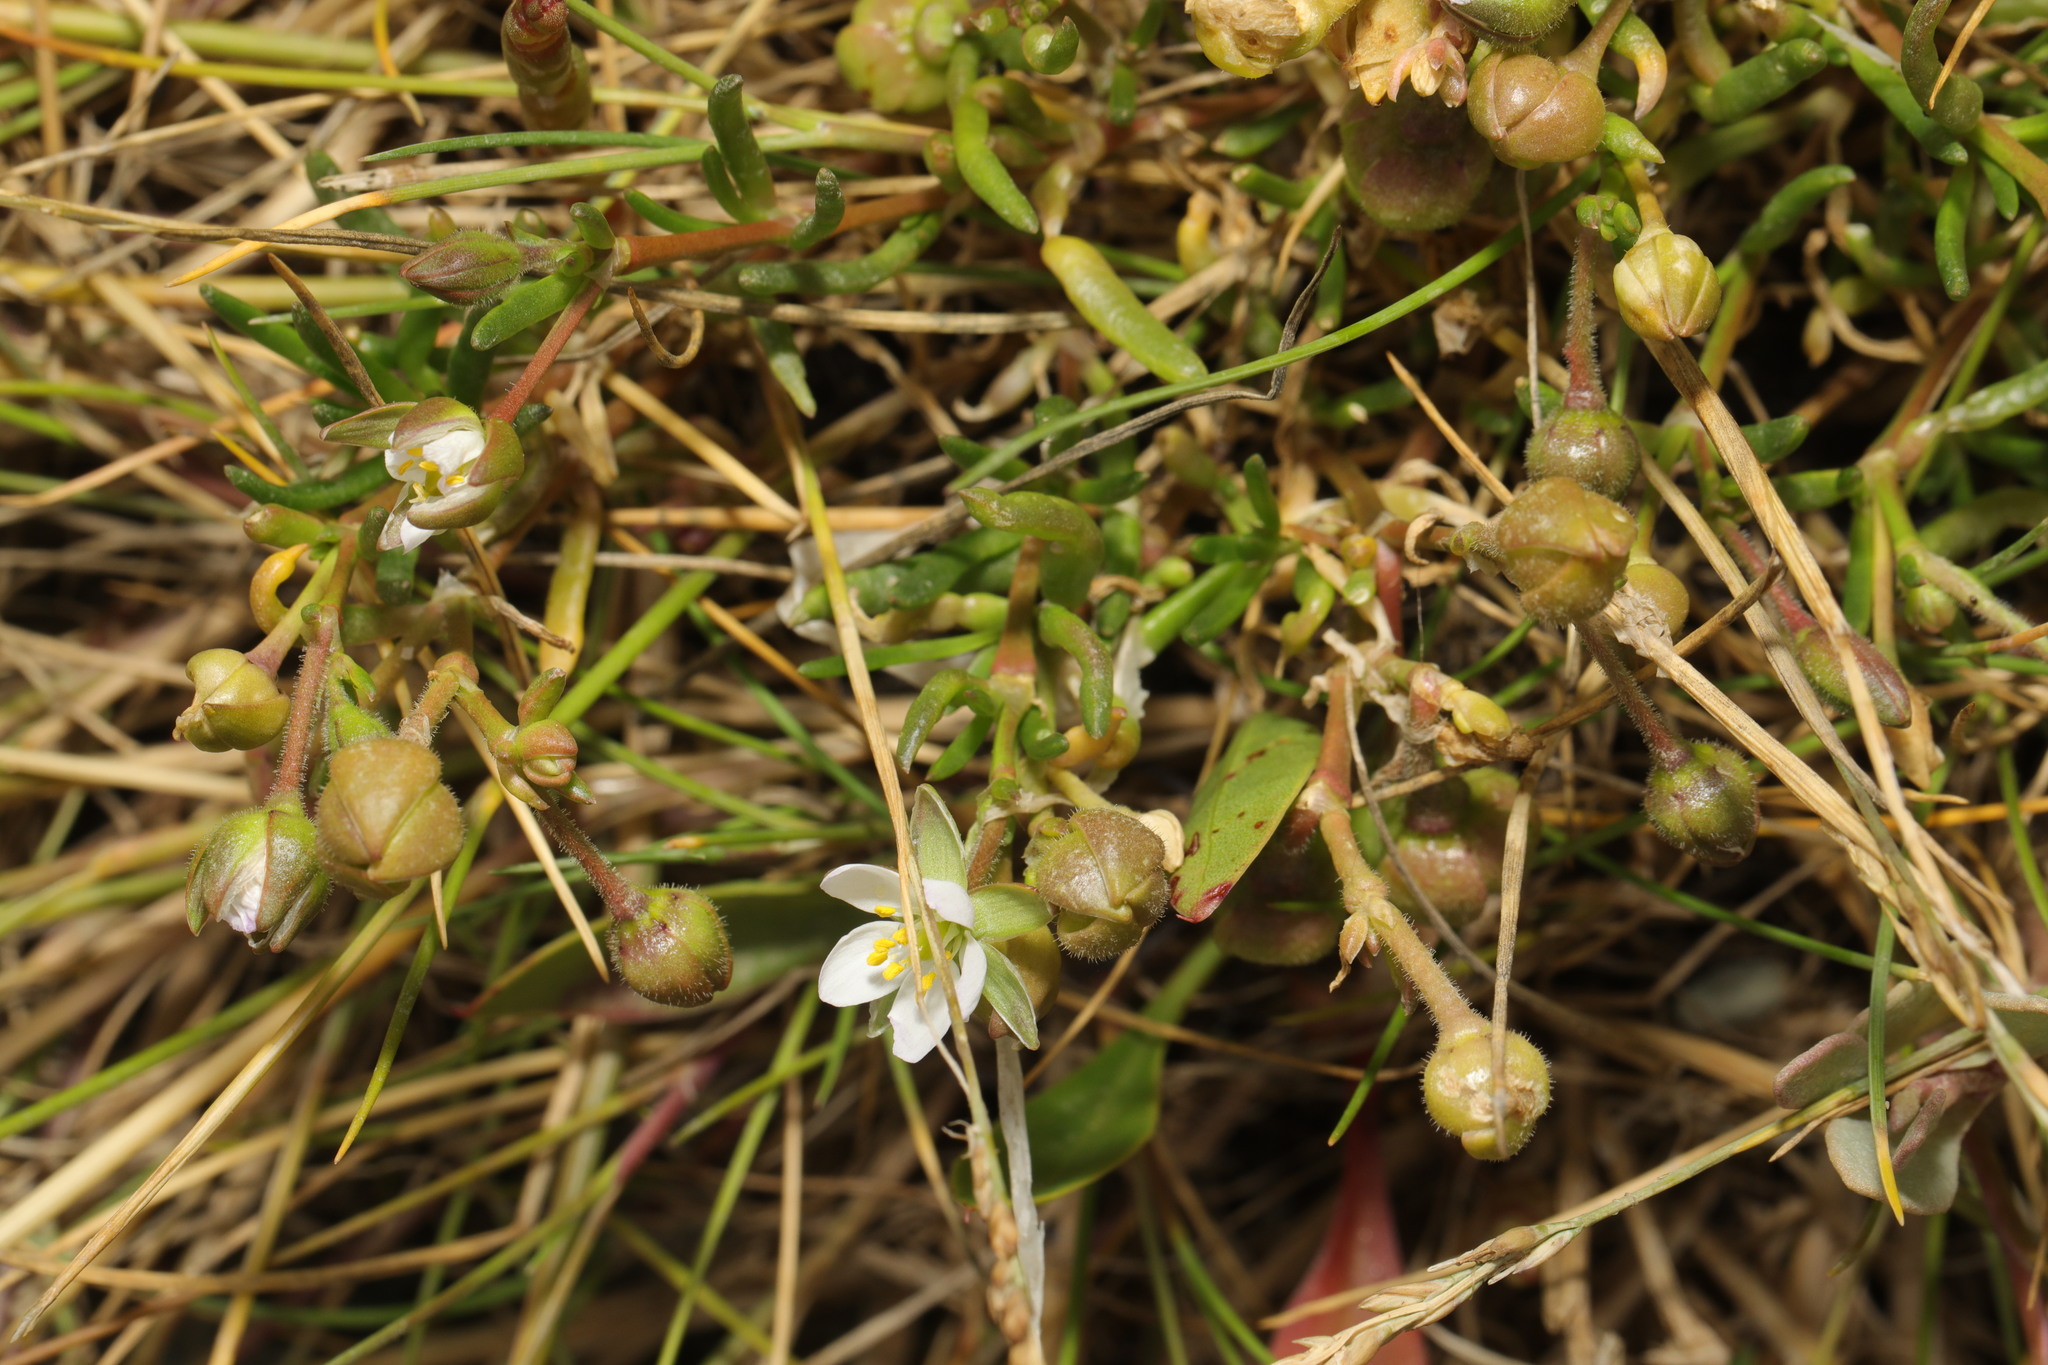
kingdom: Plantae
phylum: Tracheophyta
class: Magnoliopsida
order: Caryophyllales
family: Caryophyllaceae
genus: Spergularia
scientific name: Spergularia media
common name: Greater sea-spurrey
